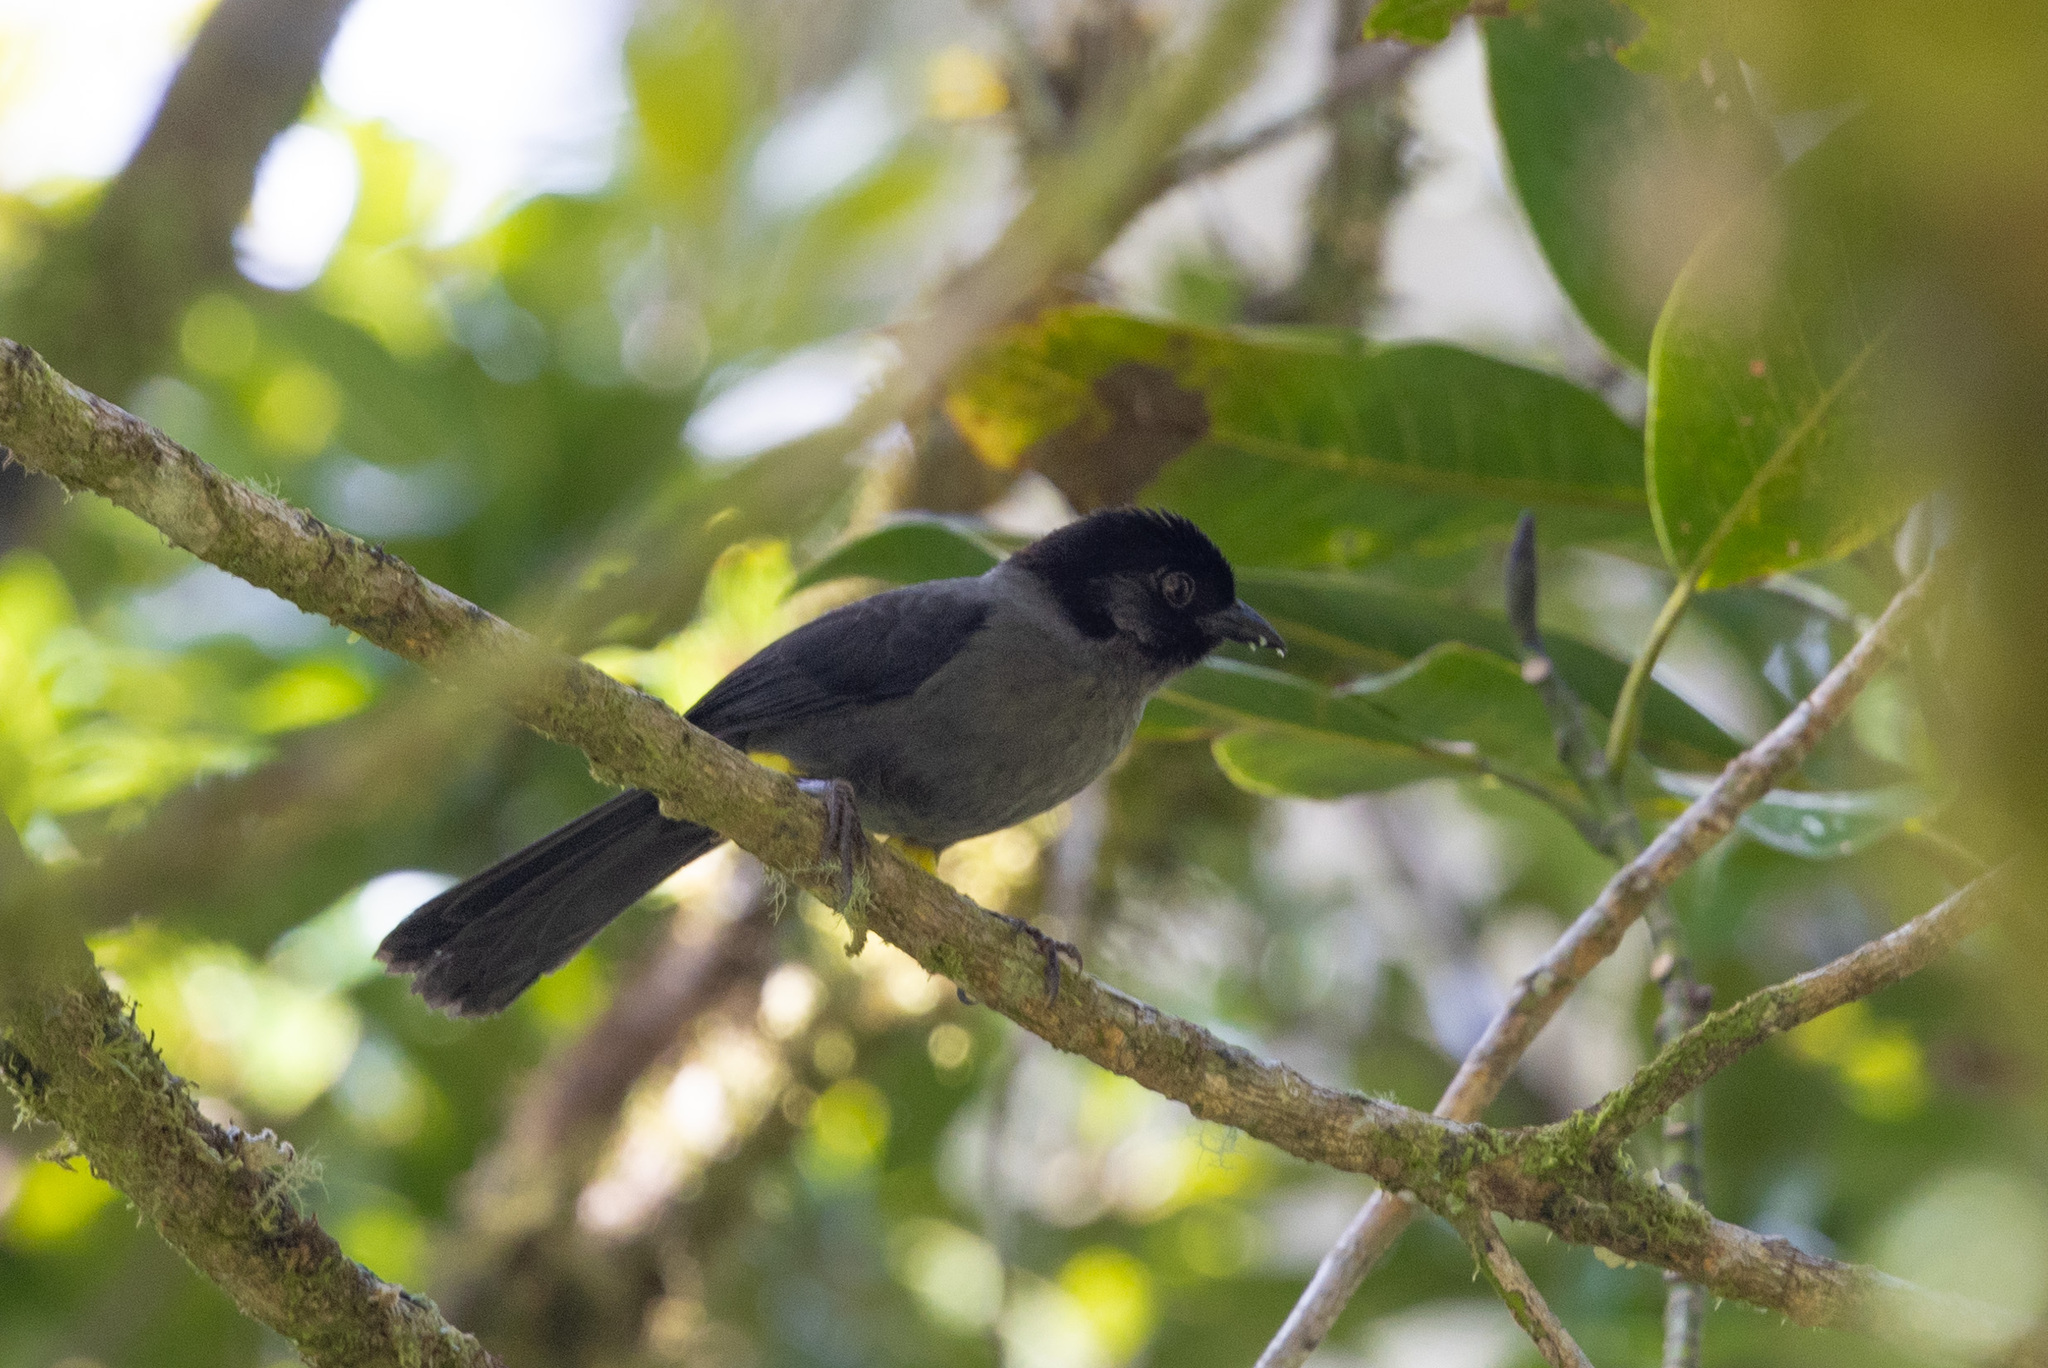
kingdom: Animalia
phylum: Chordata
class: Aves
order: Passeriformes
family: Passerellidae
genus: Atlapetes
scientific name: Atlapetes tibialis
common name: Yellow-thighed brushfinch
